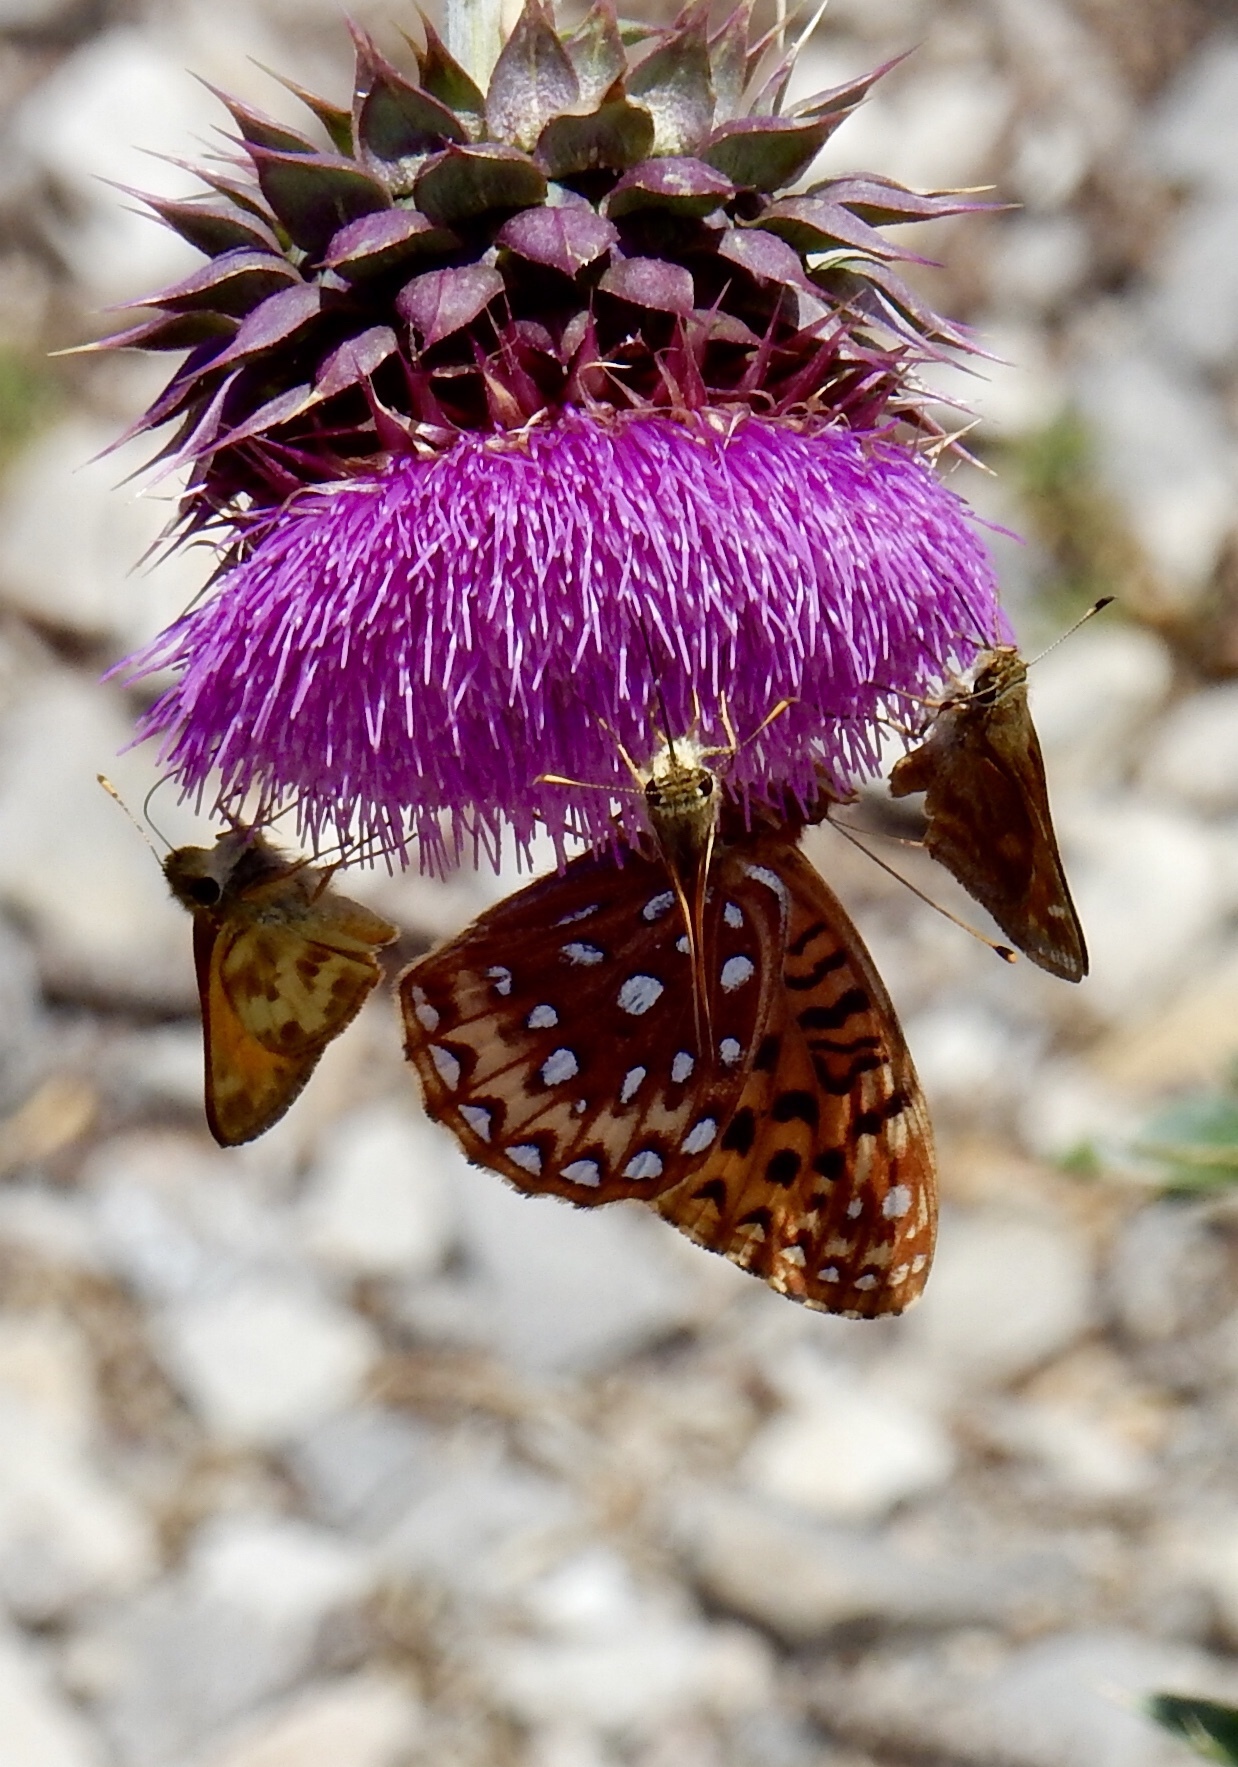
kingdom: Animalia
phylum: Arthropoda
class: Insecta
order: Lepidoptera
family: Nymphalidae
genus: Speyeria
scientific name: Speyeria atlantis
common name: Atlantis fritillary
